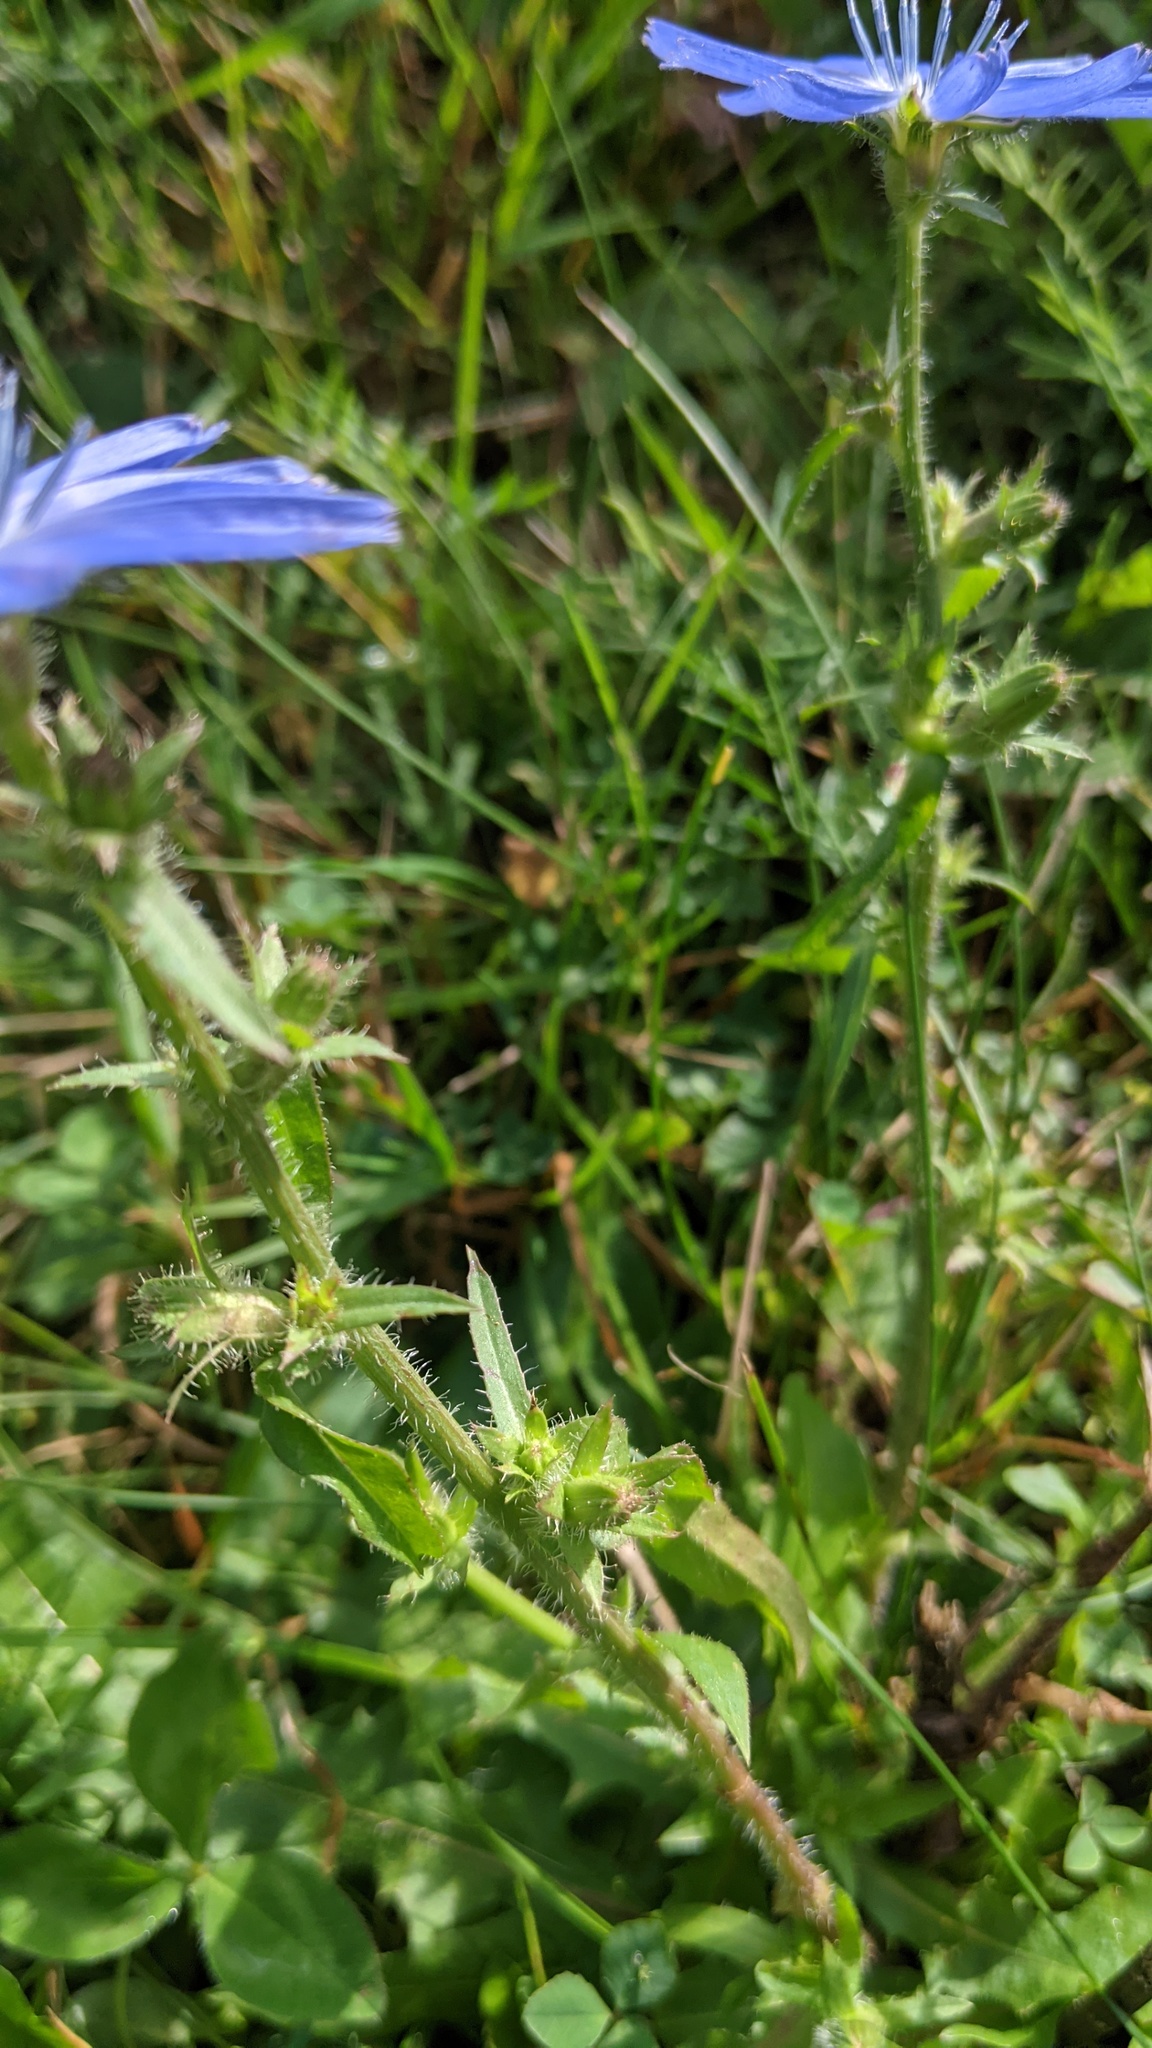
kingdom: Plantae
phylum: Tracheophyta
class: Magnoliopsida
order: Asterales
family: Asteraceae
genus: Cichorium
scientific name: Cichorium intybus
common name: Chicory
